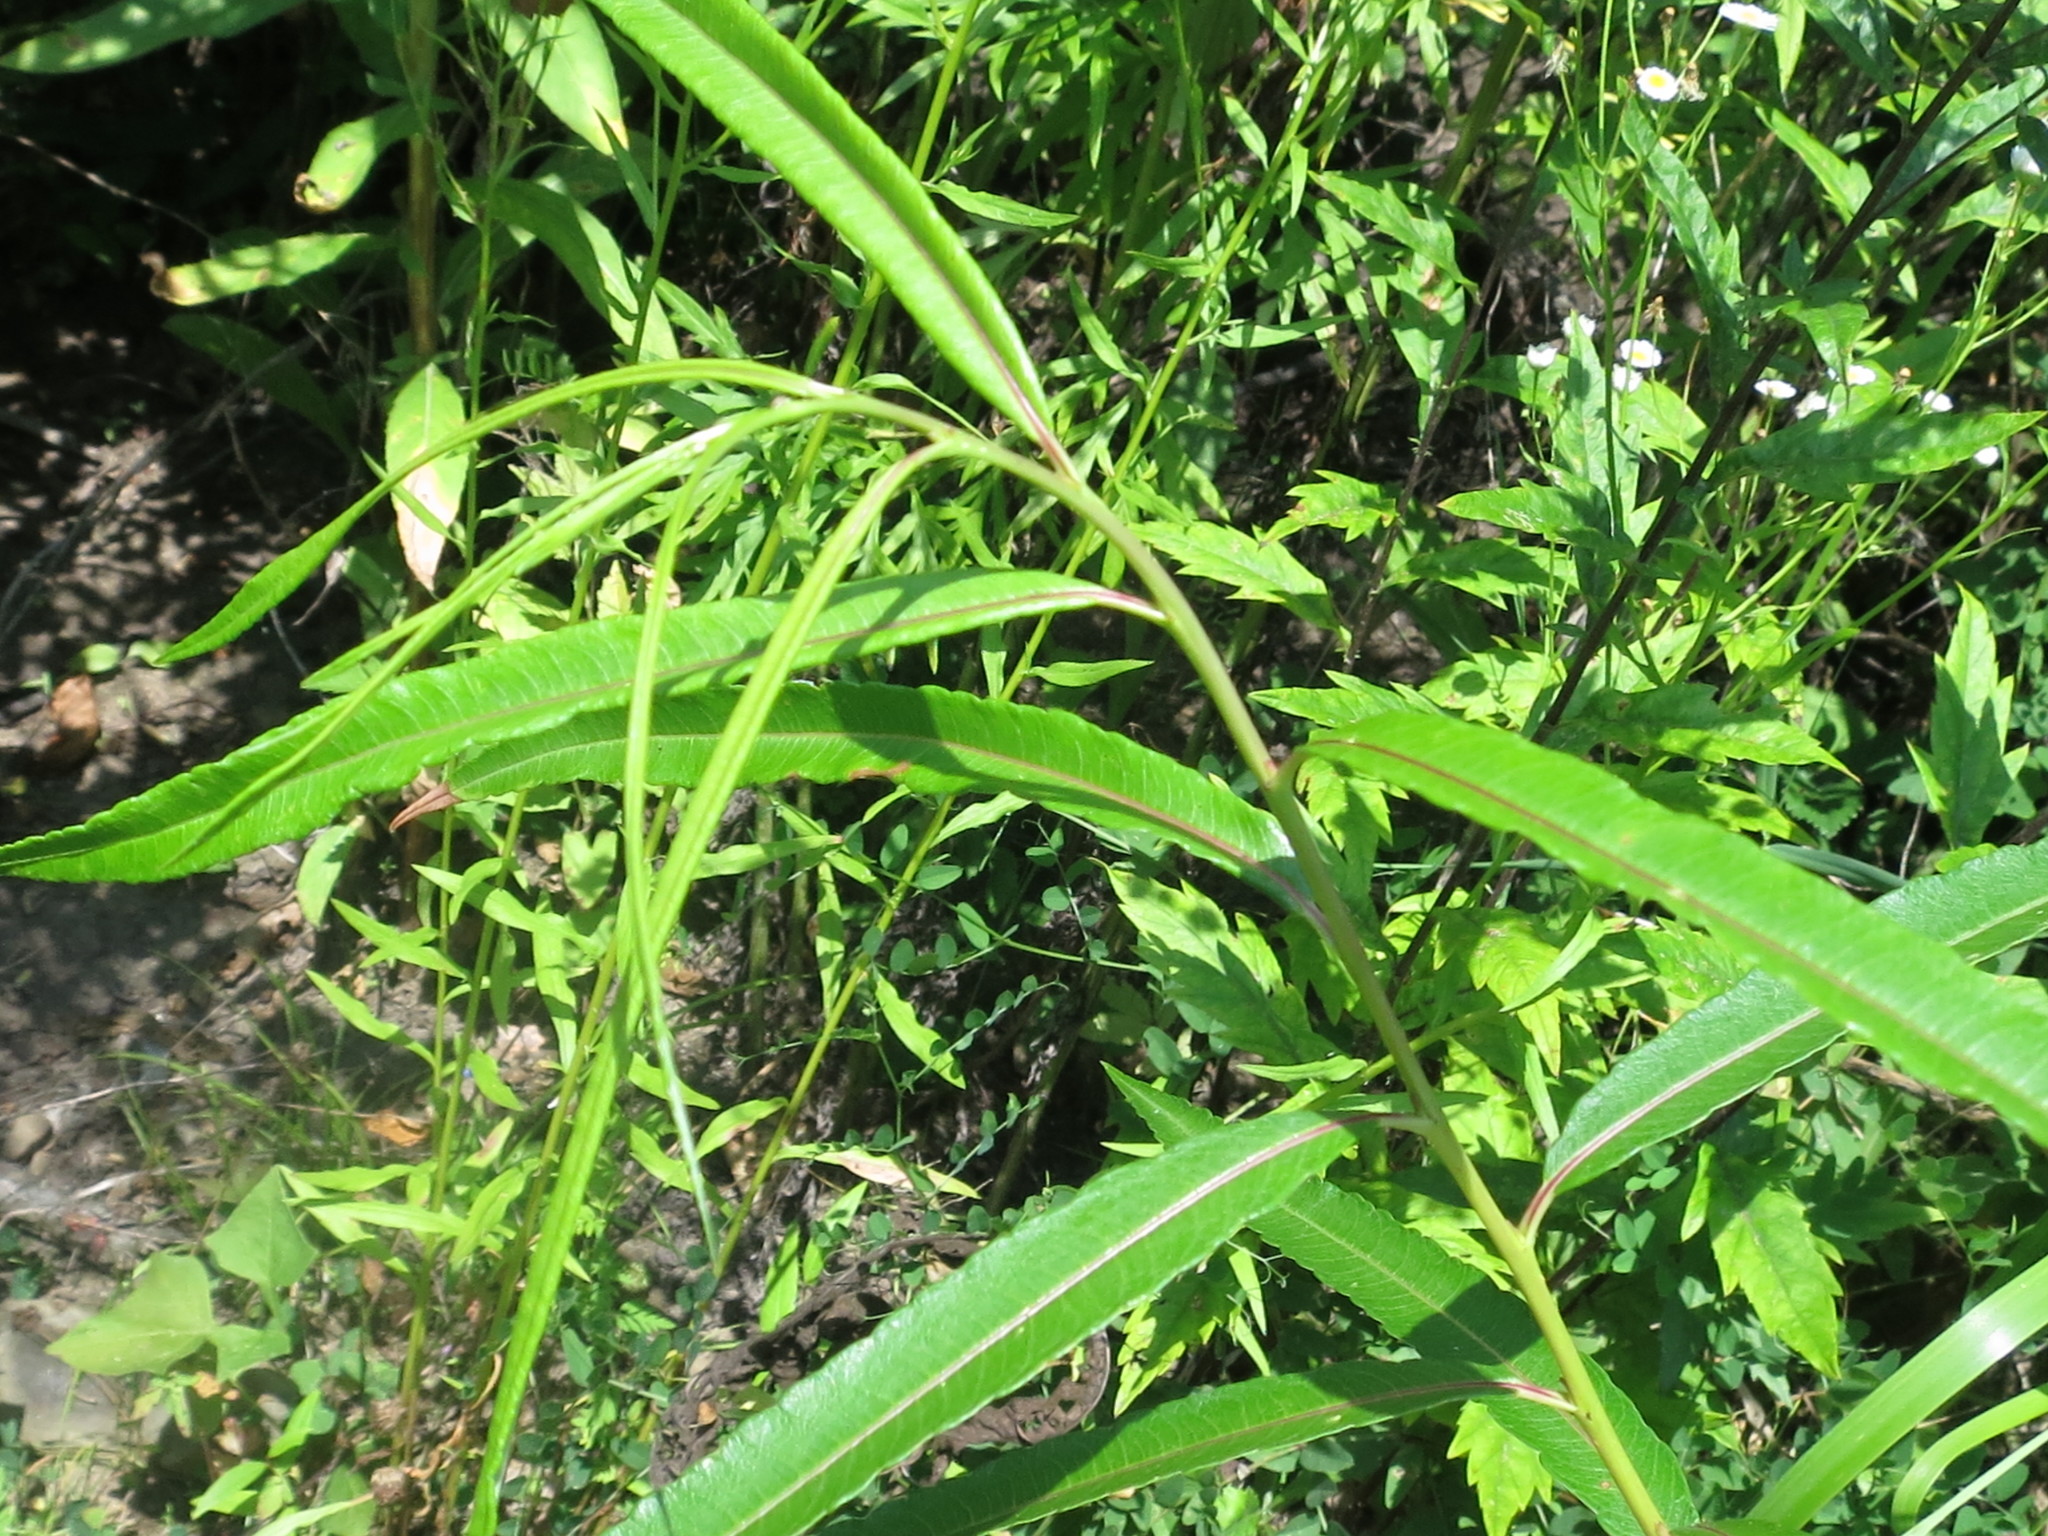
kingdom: Plantae
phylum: Tracheophyta
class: Magnoliopsida
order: Malpighiales
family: Salicaceae
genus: Salix
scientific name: Salix udensis
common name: Sachalin willow
